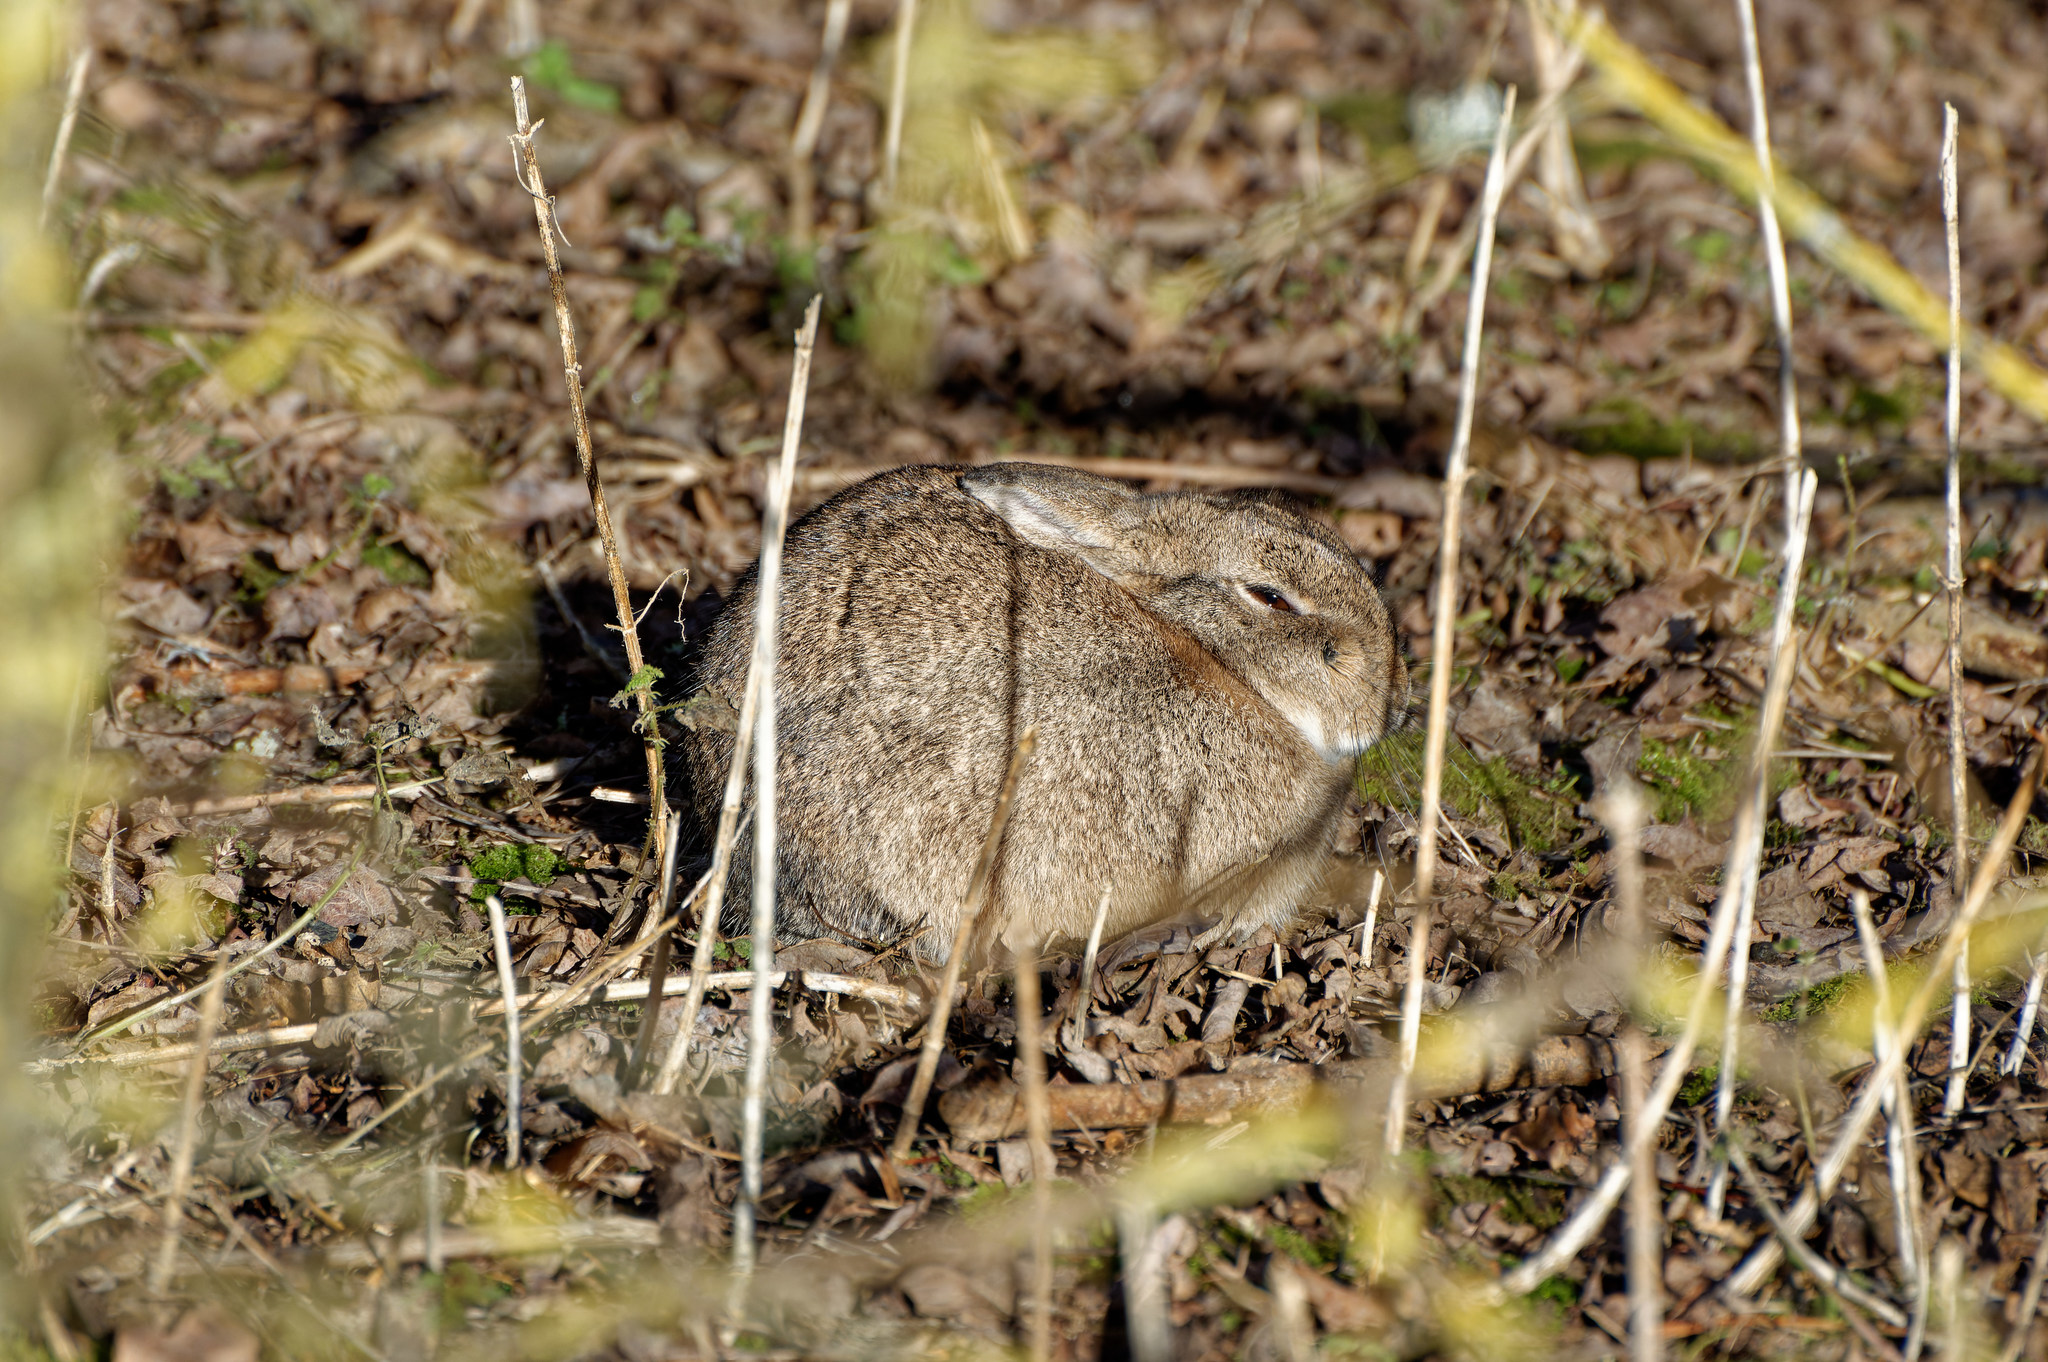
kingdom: Animalia
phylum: Chordata
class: Mammalia
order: Lagomorpha
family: Leporidae
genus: Oryctolagus
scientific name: Oryctolagus cuniculus
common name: European rabbit
